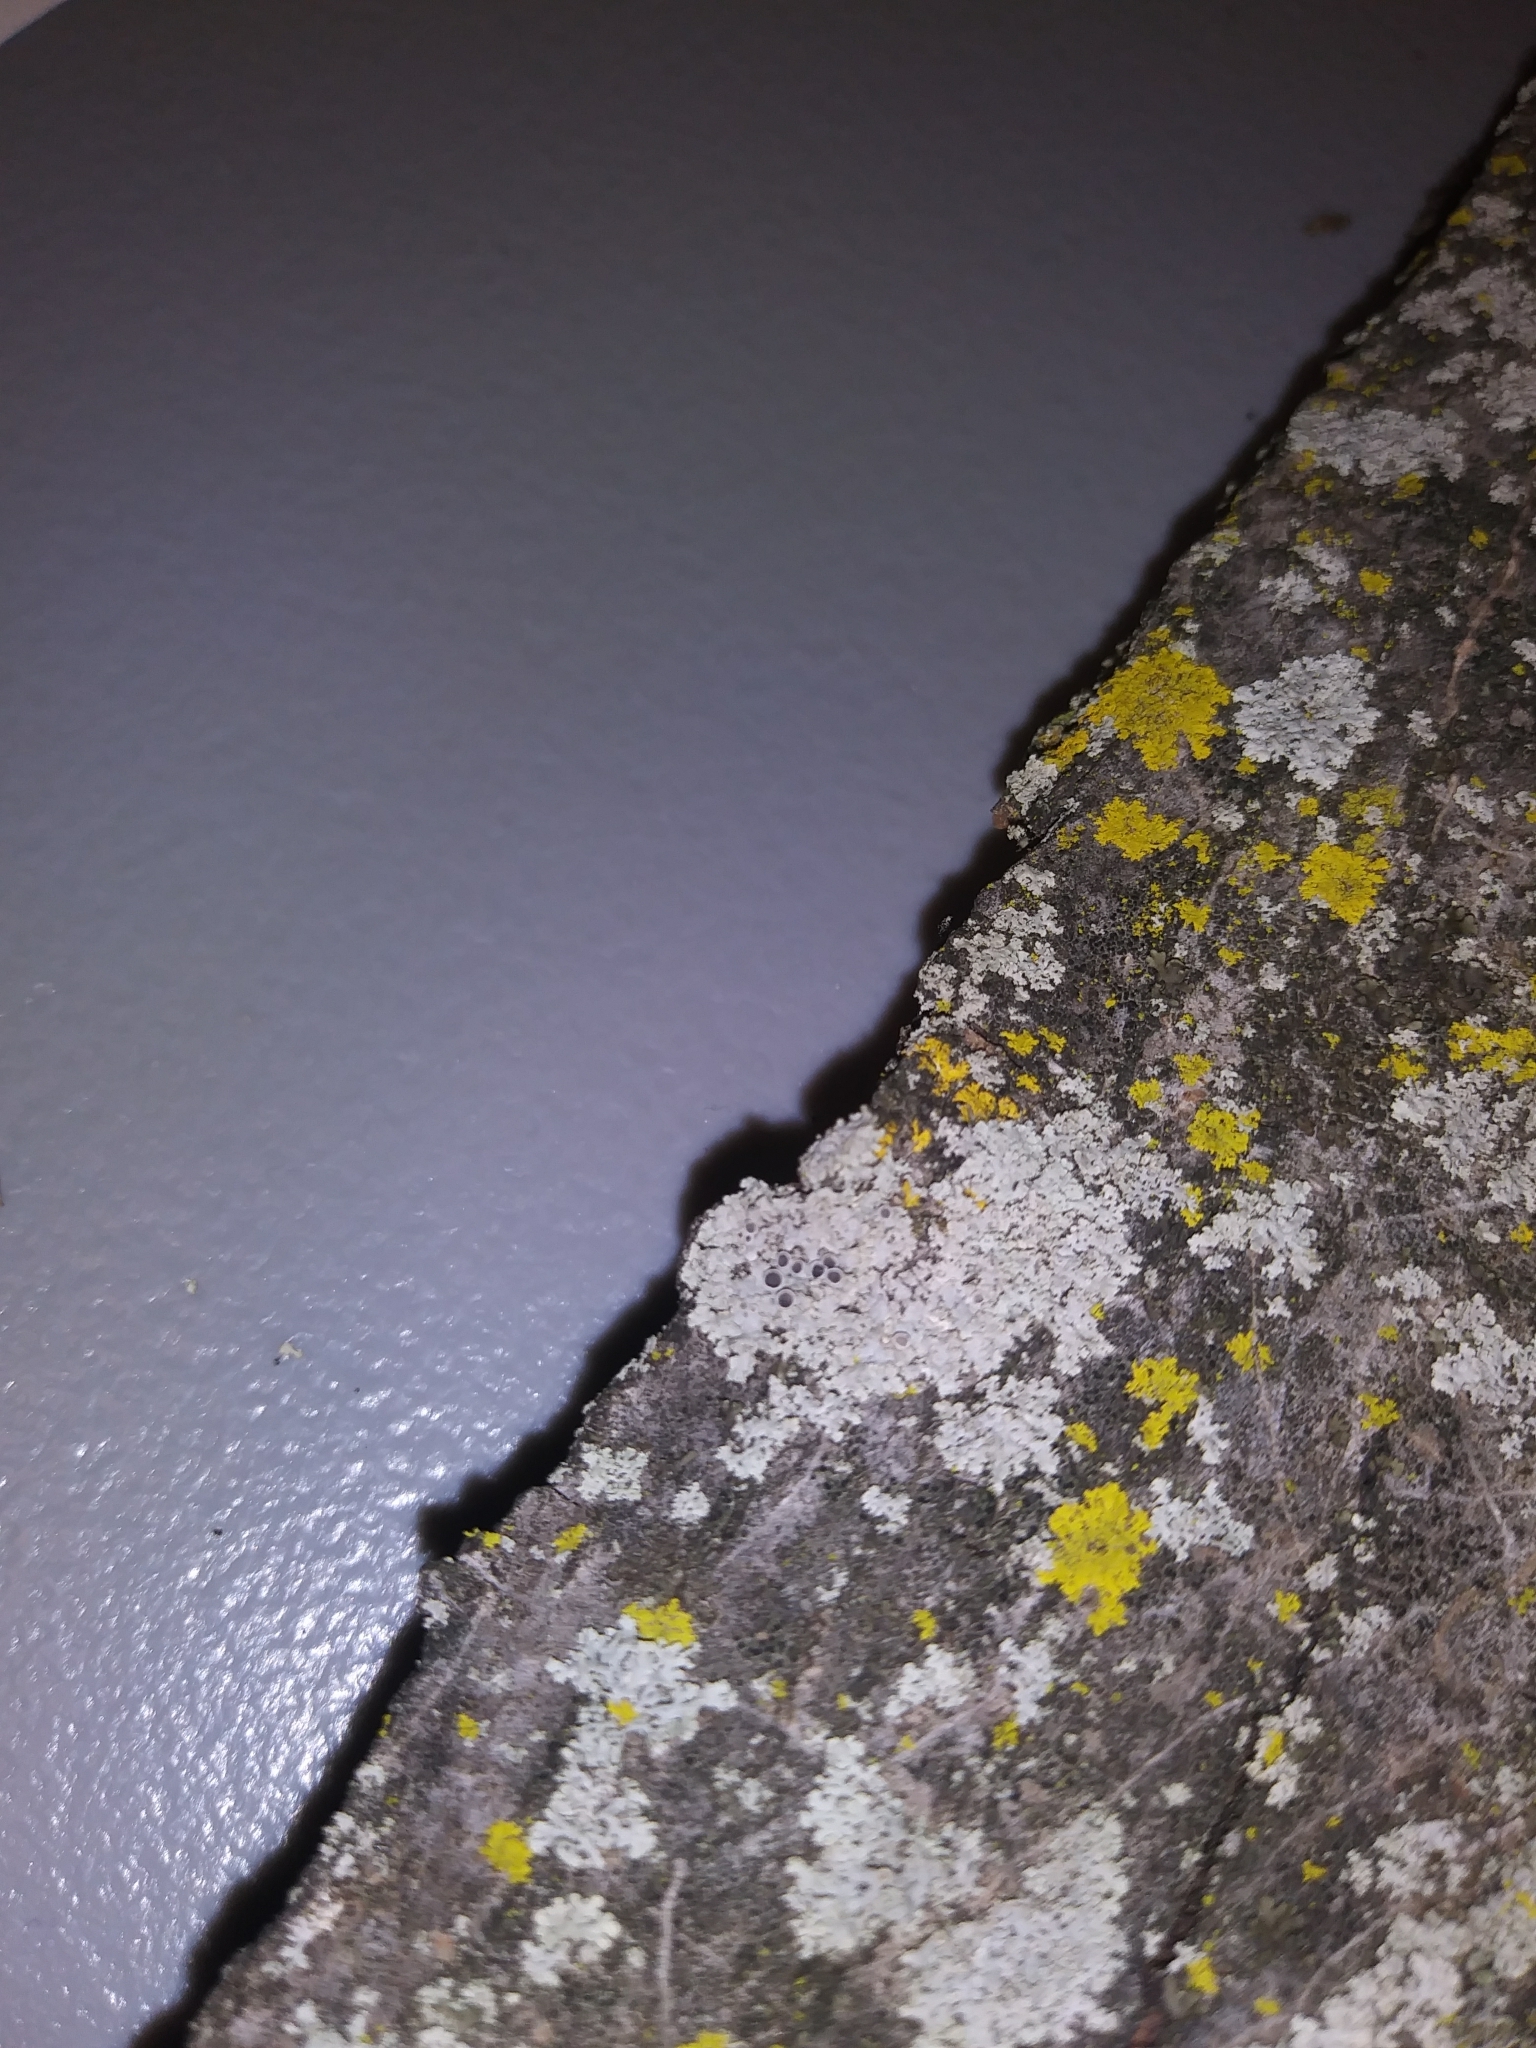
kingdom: Fungi
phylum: Ascomycota
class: Lecanoromycetes
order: Caliciales
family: Physciaceae
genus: Physcia
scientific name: Physcia millegrana
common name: Rosette lichen
